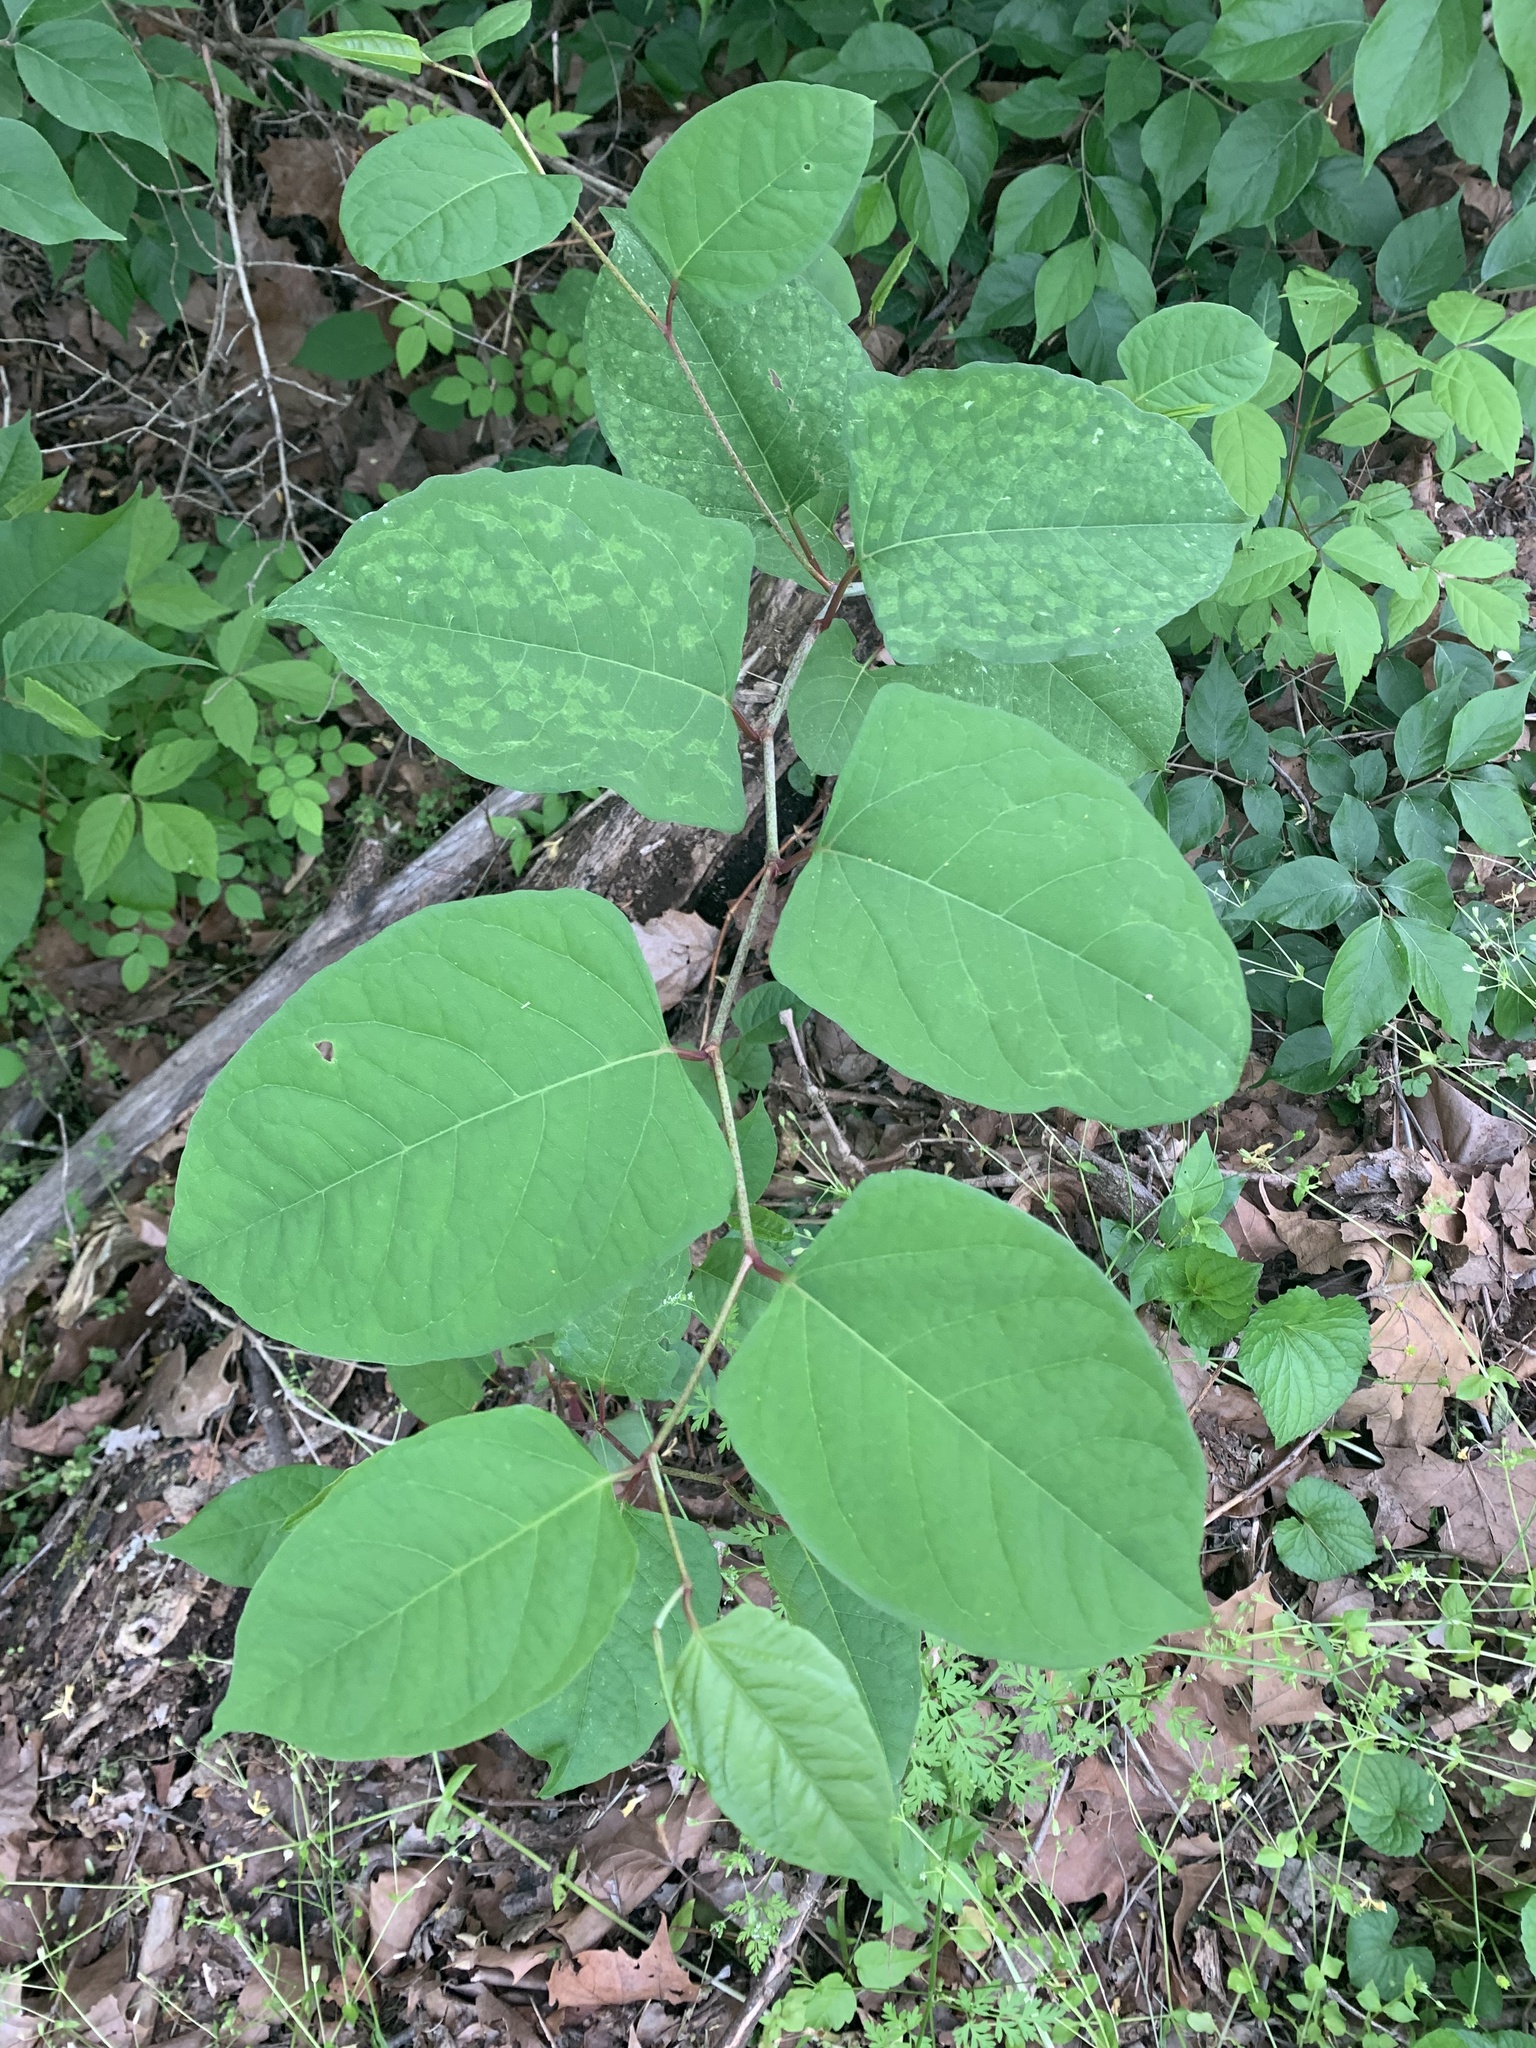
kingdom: Plantae
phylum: Tracheophyta
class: Magnoliopsida
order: Caryophyllales
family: Polygonaceae
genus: Reynoutria
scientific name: Reynoutria japonica
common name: Japanese knotweed
